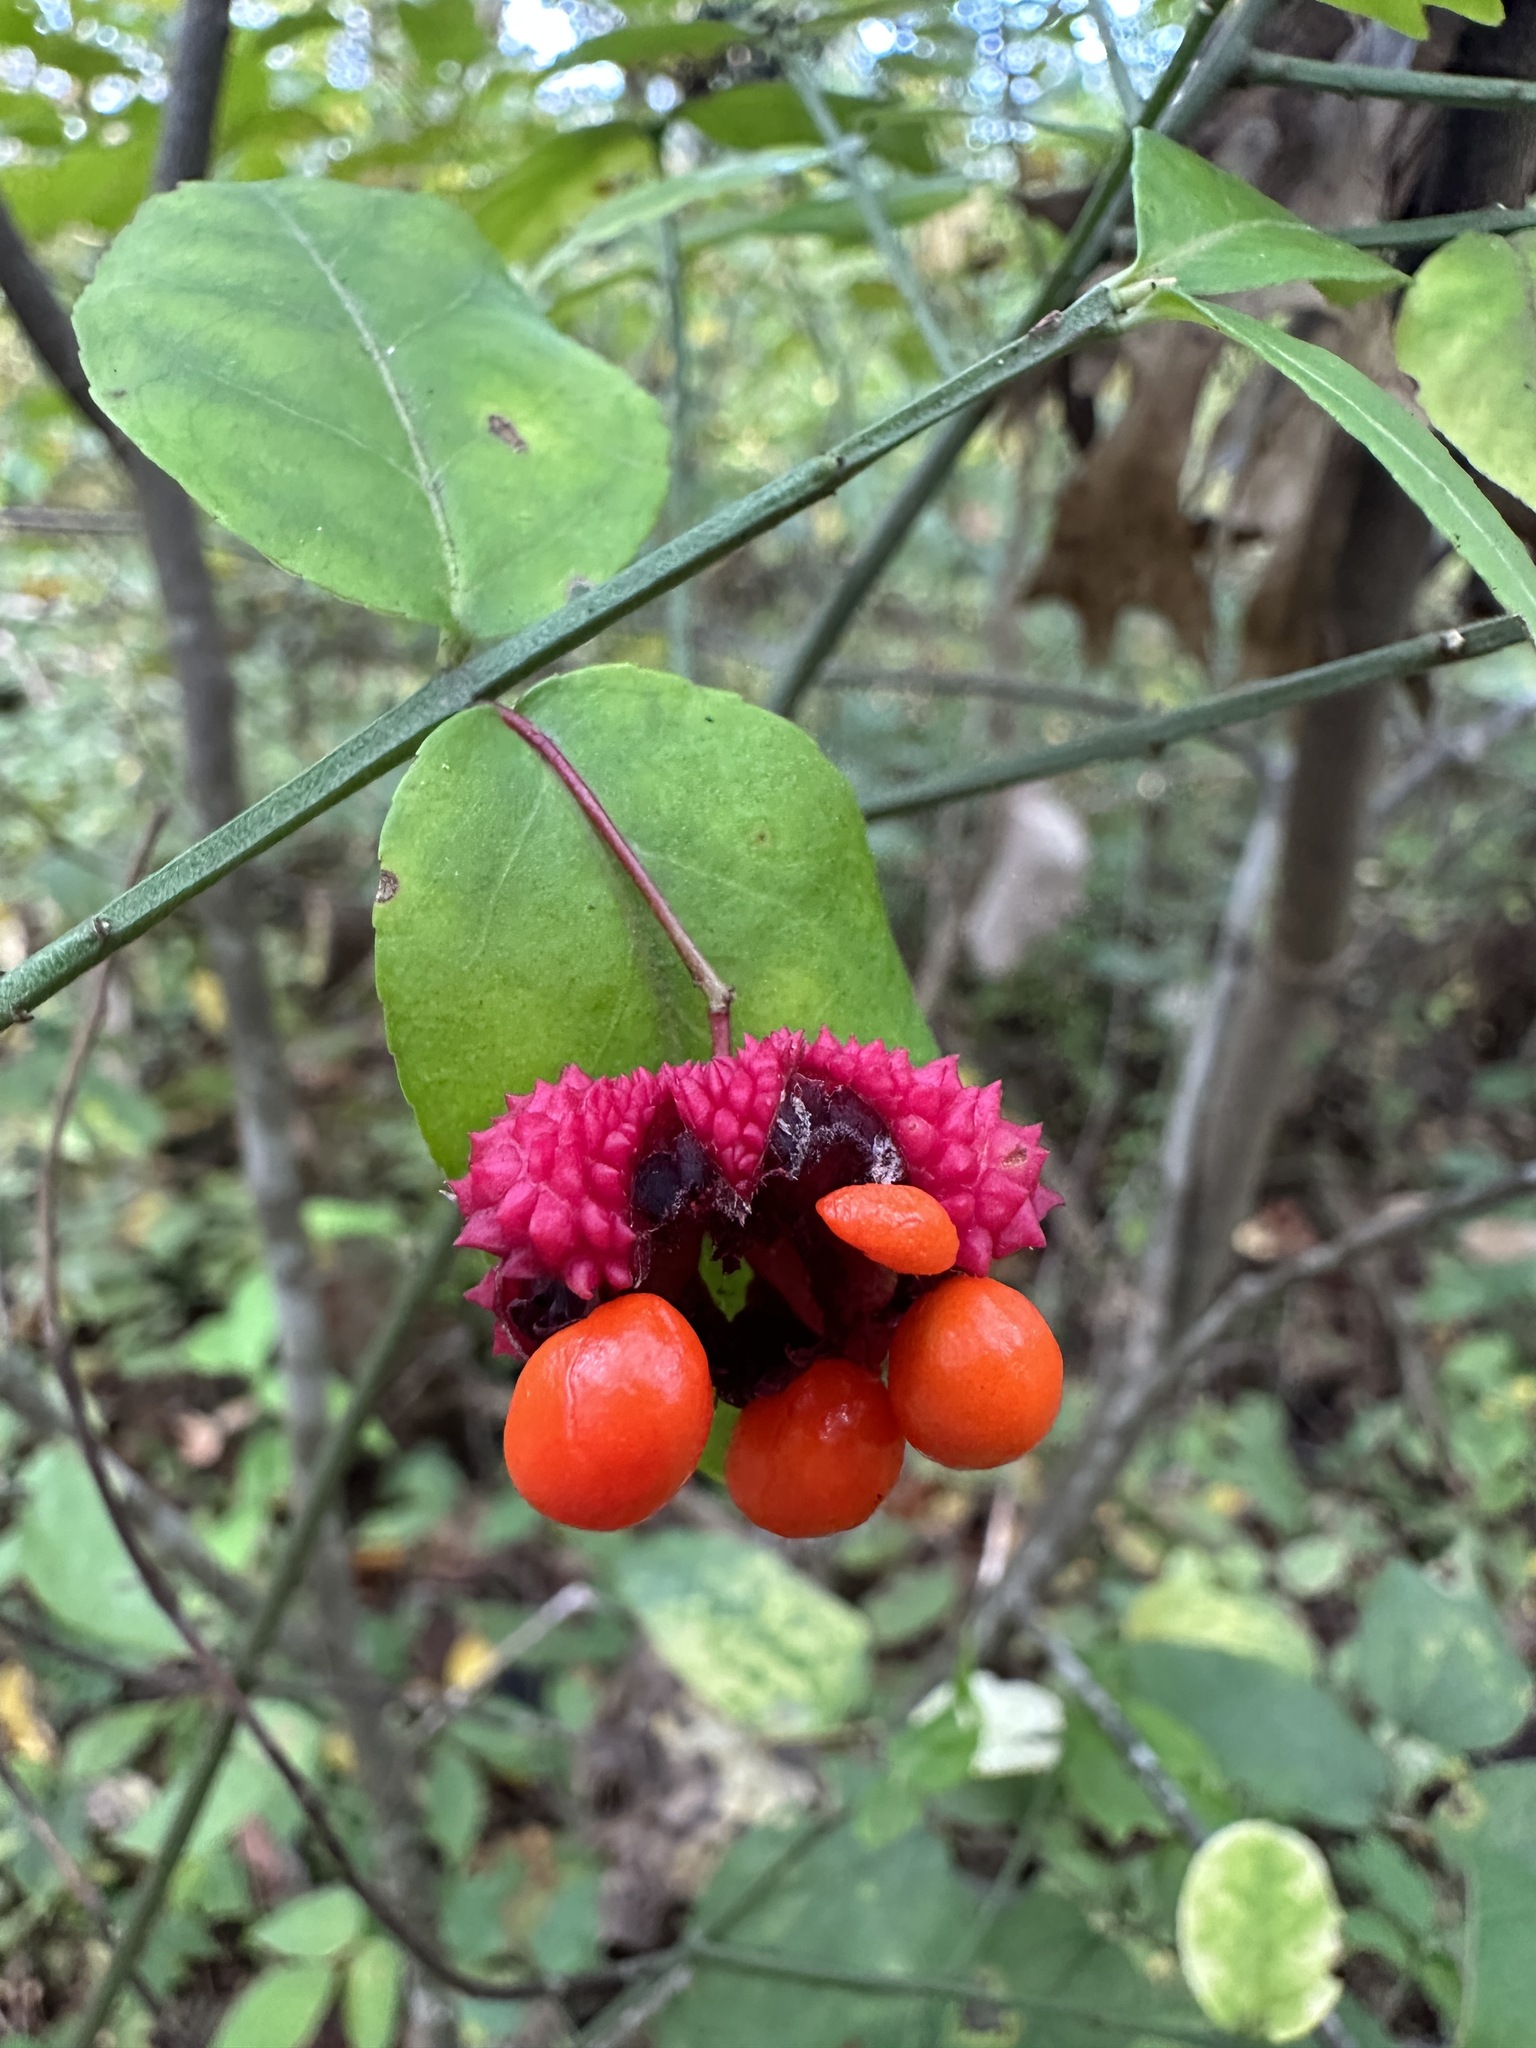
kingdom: Plantae
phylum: Tracheophyta
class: Magnoliopsida
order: Celastrales
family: Celastraceae
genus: Euonymus
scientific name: Euonymus americanus
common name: Bursting-heart
